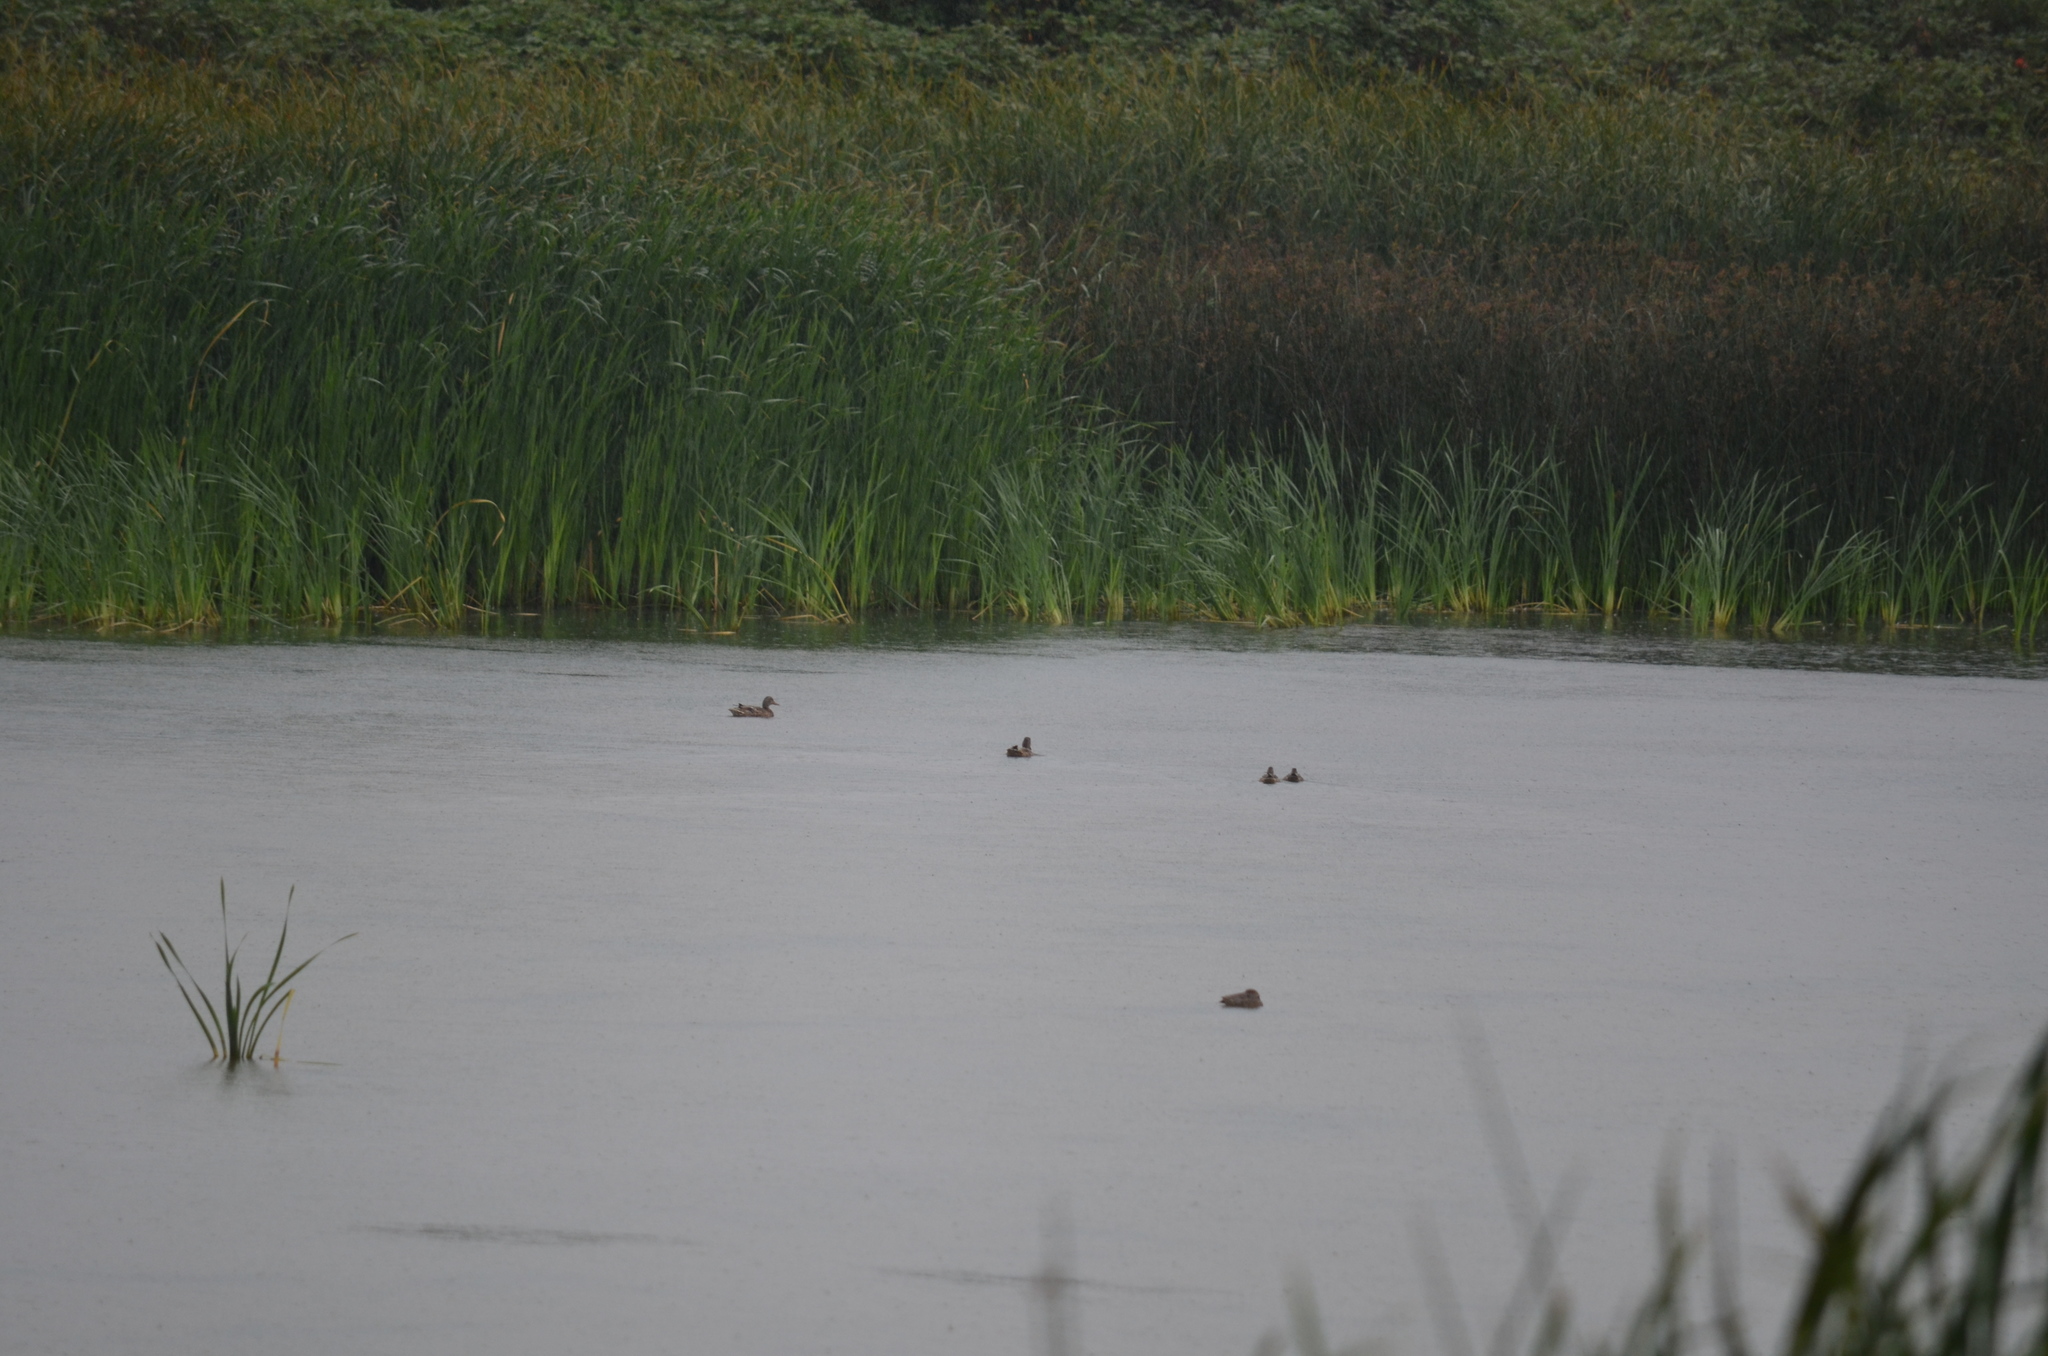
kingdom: Animalia
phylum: Chordata
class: Aves
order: Anseriformes
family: Anatidae
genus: Anas
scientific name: Anas platyrhynchos
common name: Mallard
